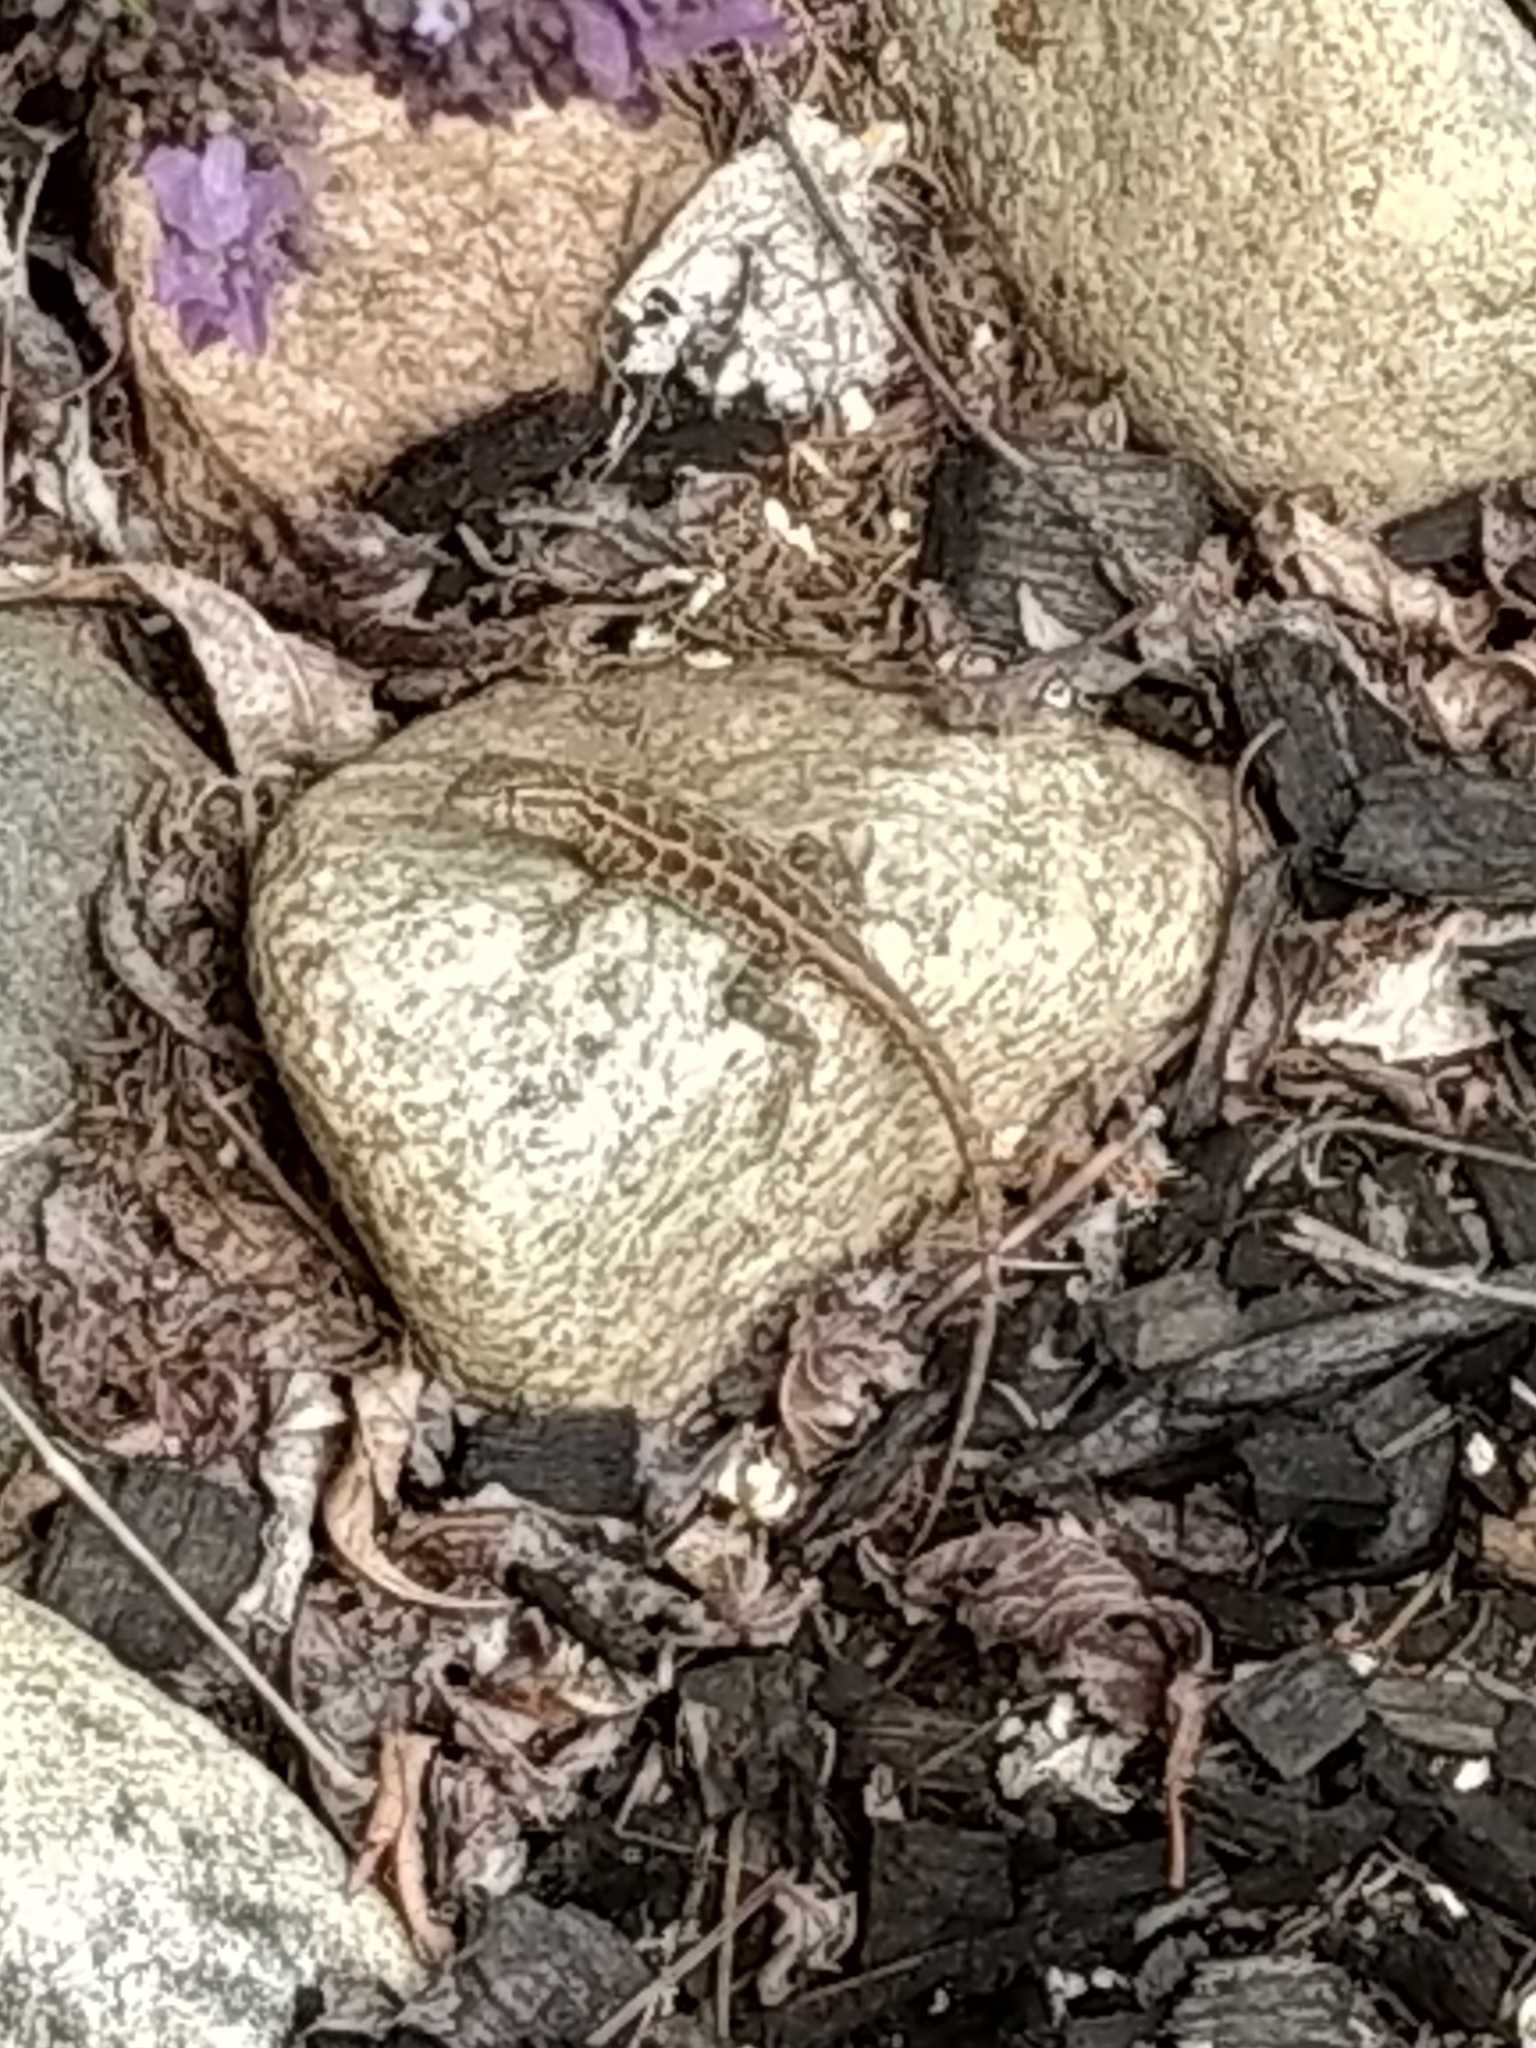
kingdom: Animalia
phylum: Chordata
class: Squamata
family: Phrynosomatidae
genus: Uta
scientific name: Uta stansburiana
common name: Side-blotched lizard
